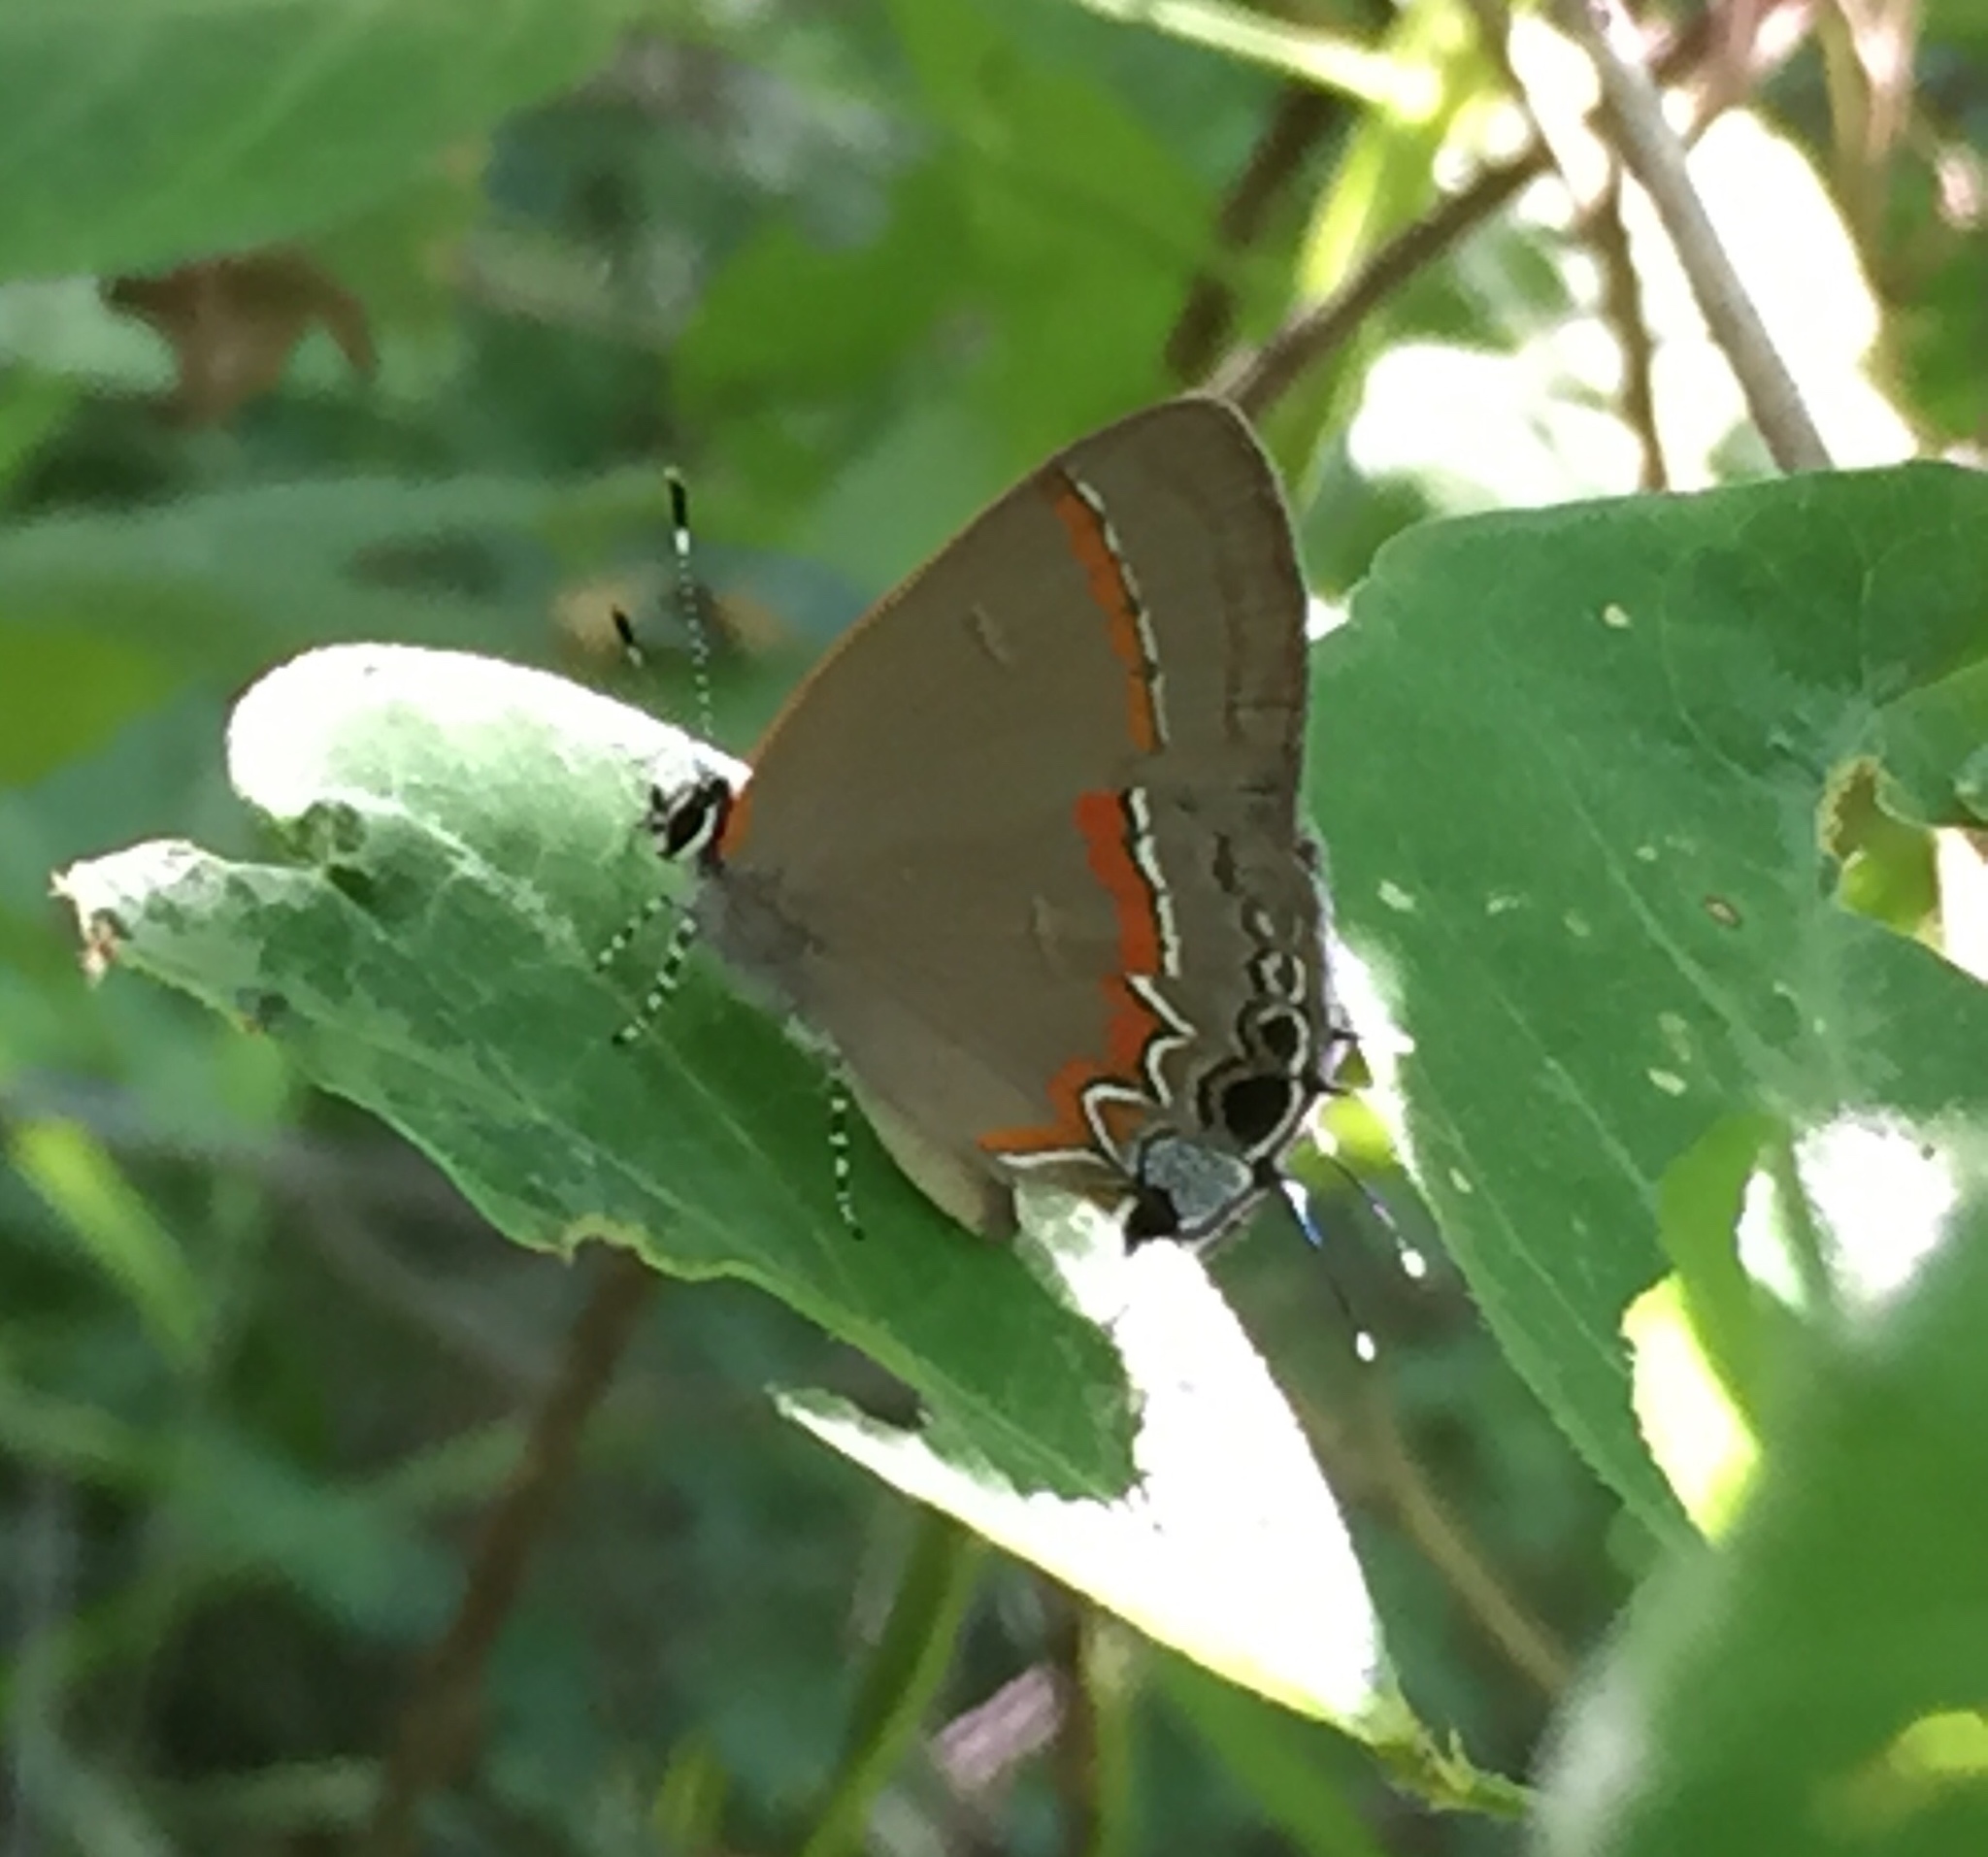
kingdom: Animalia
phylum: Arthropoda
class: Insecta
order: Lepidoptera
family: Lycaenidae
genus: Calycopis
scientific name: Calycopis cecrops
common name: Red-banded hairstreak
